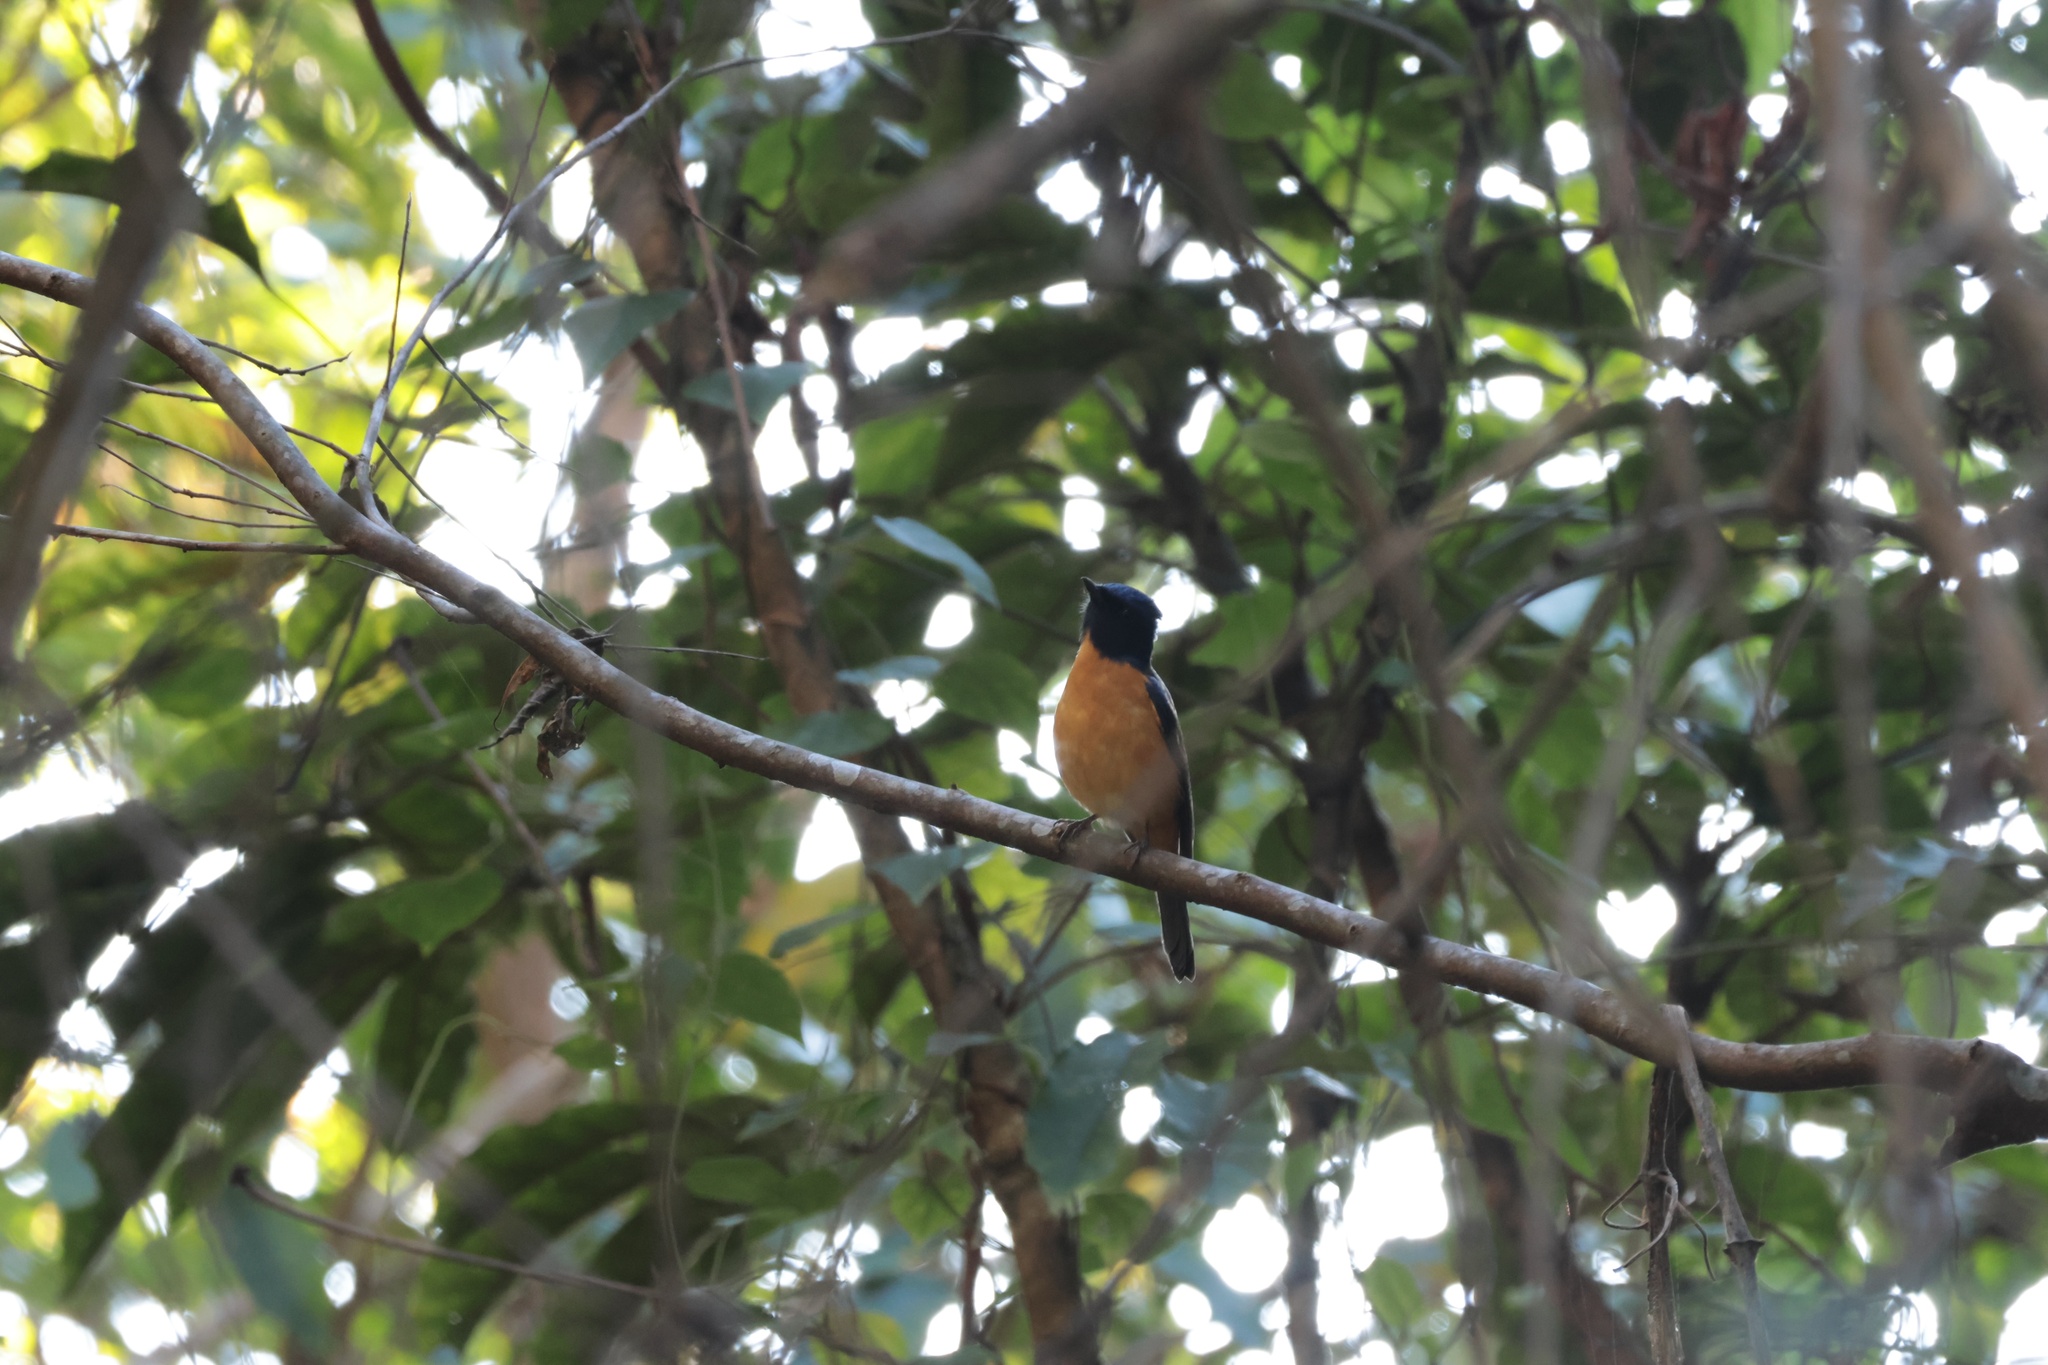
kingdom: Animalia
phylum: Chordata
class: Aves
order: Passeriformes
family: Muscicapidae
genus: Niltava
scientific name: Niltava vivida
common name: Vivid niltava
